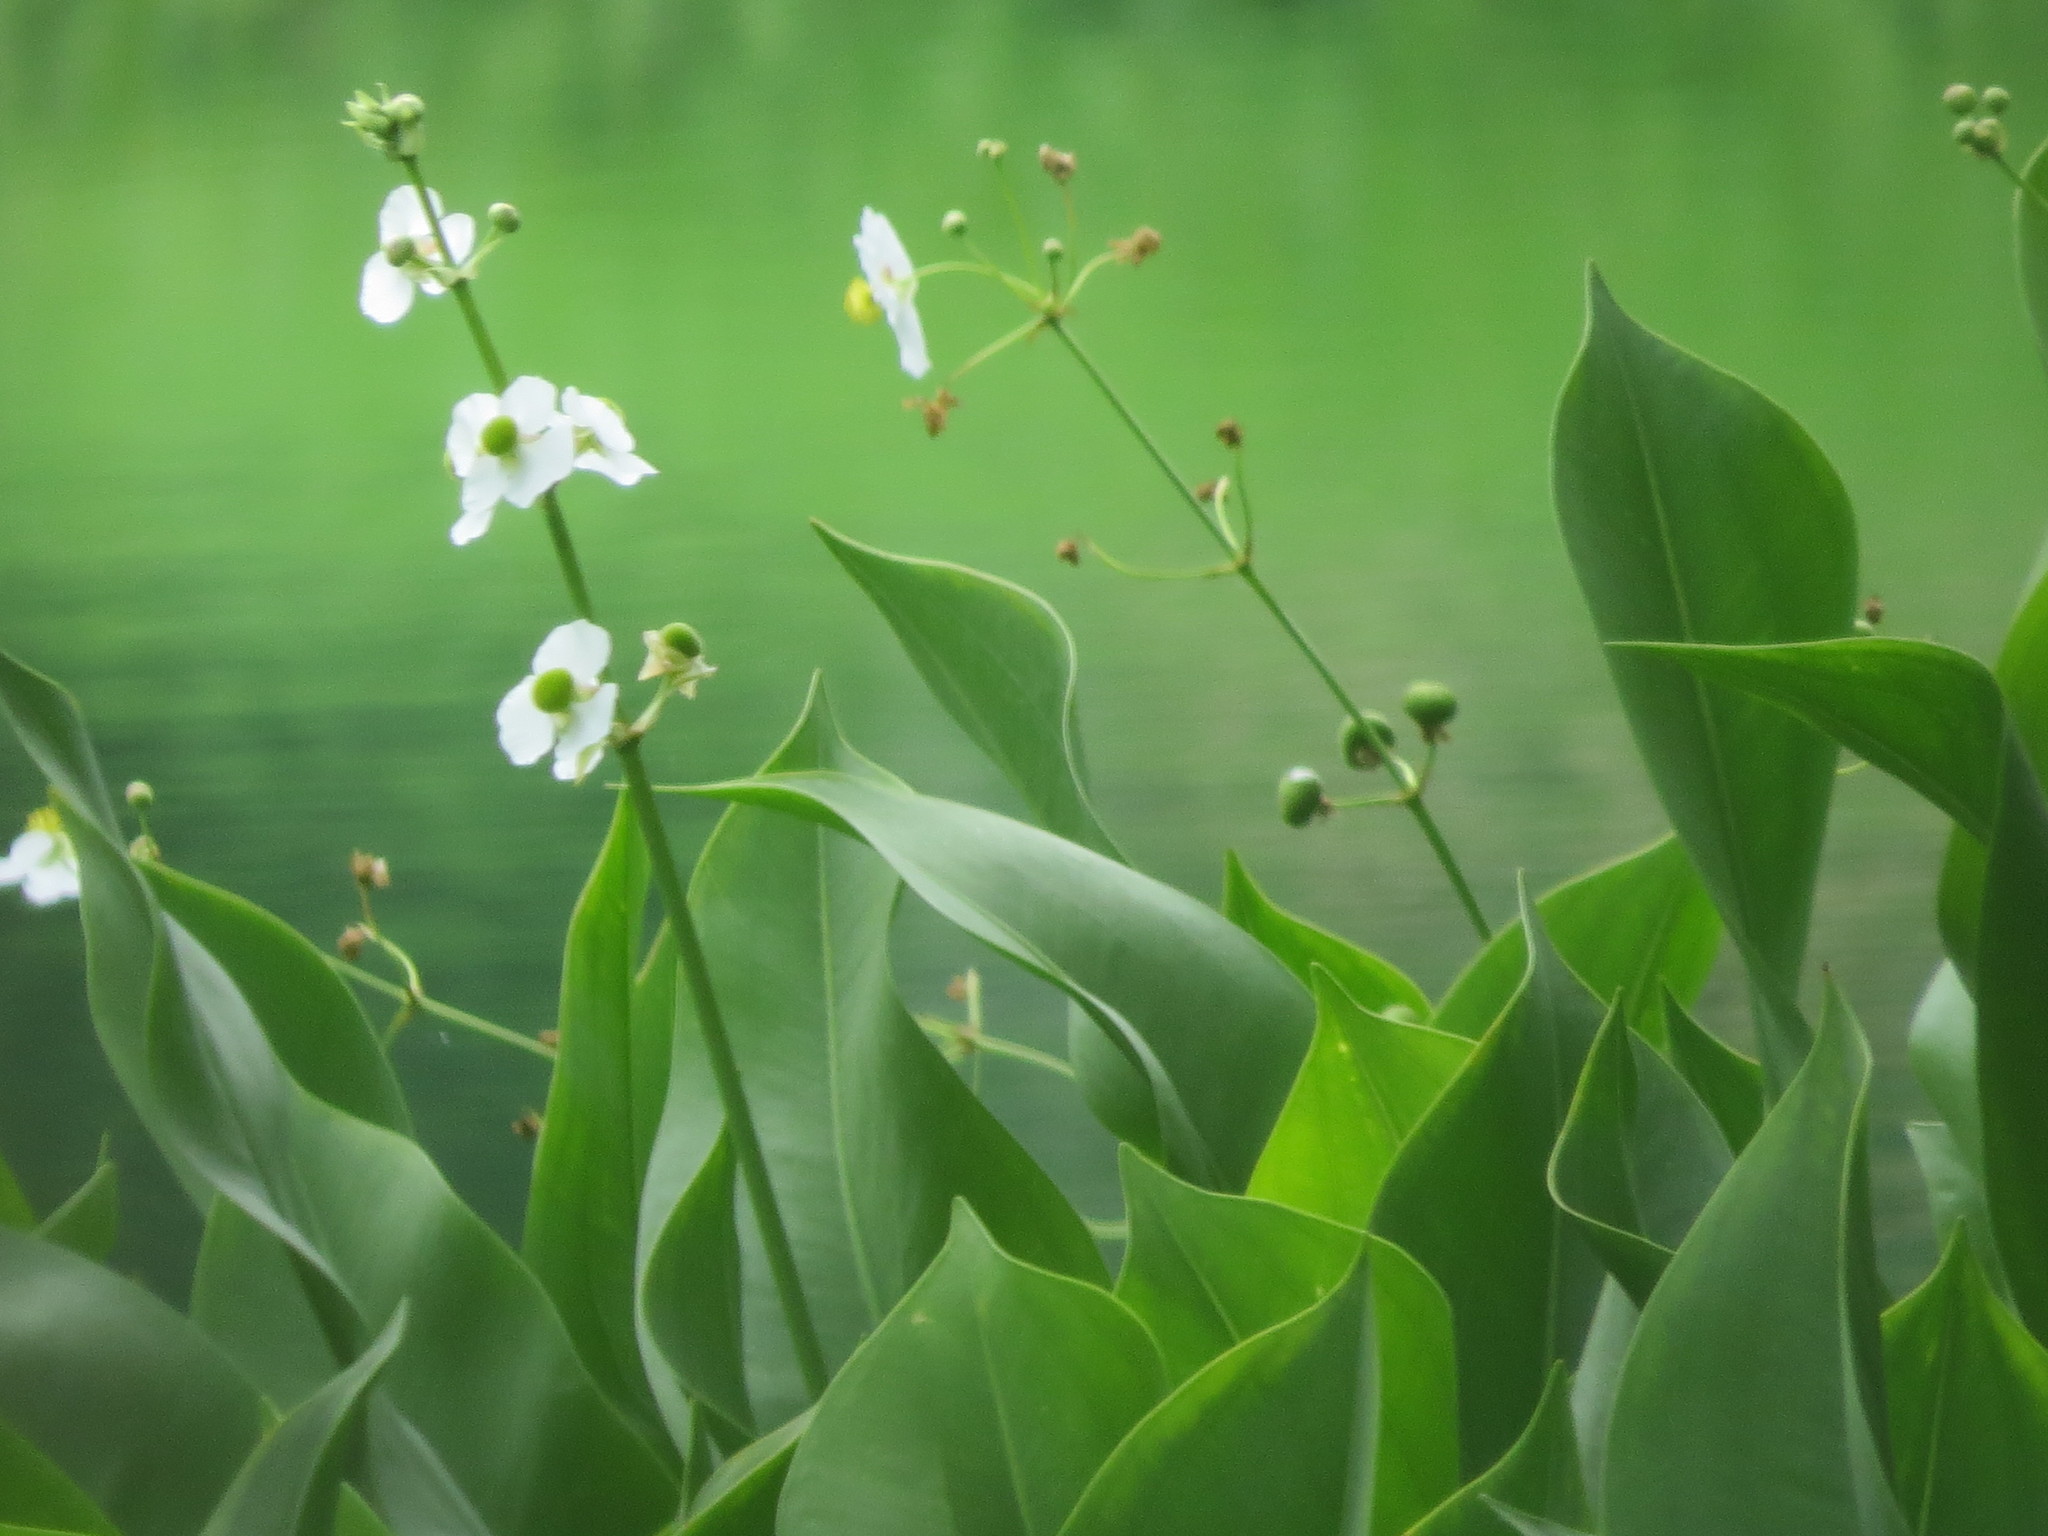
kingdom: Plantae
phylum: Tracheophyta
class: Liliopsida
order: Alismatales
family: Alismataceae
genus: Sagittaria
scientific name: Sagittaria lancifolia
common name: Lance-leaf arrowhead
